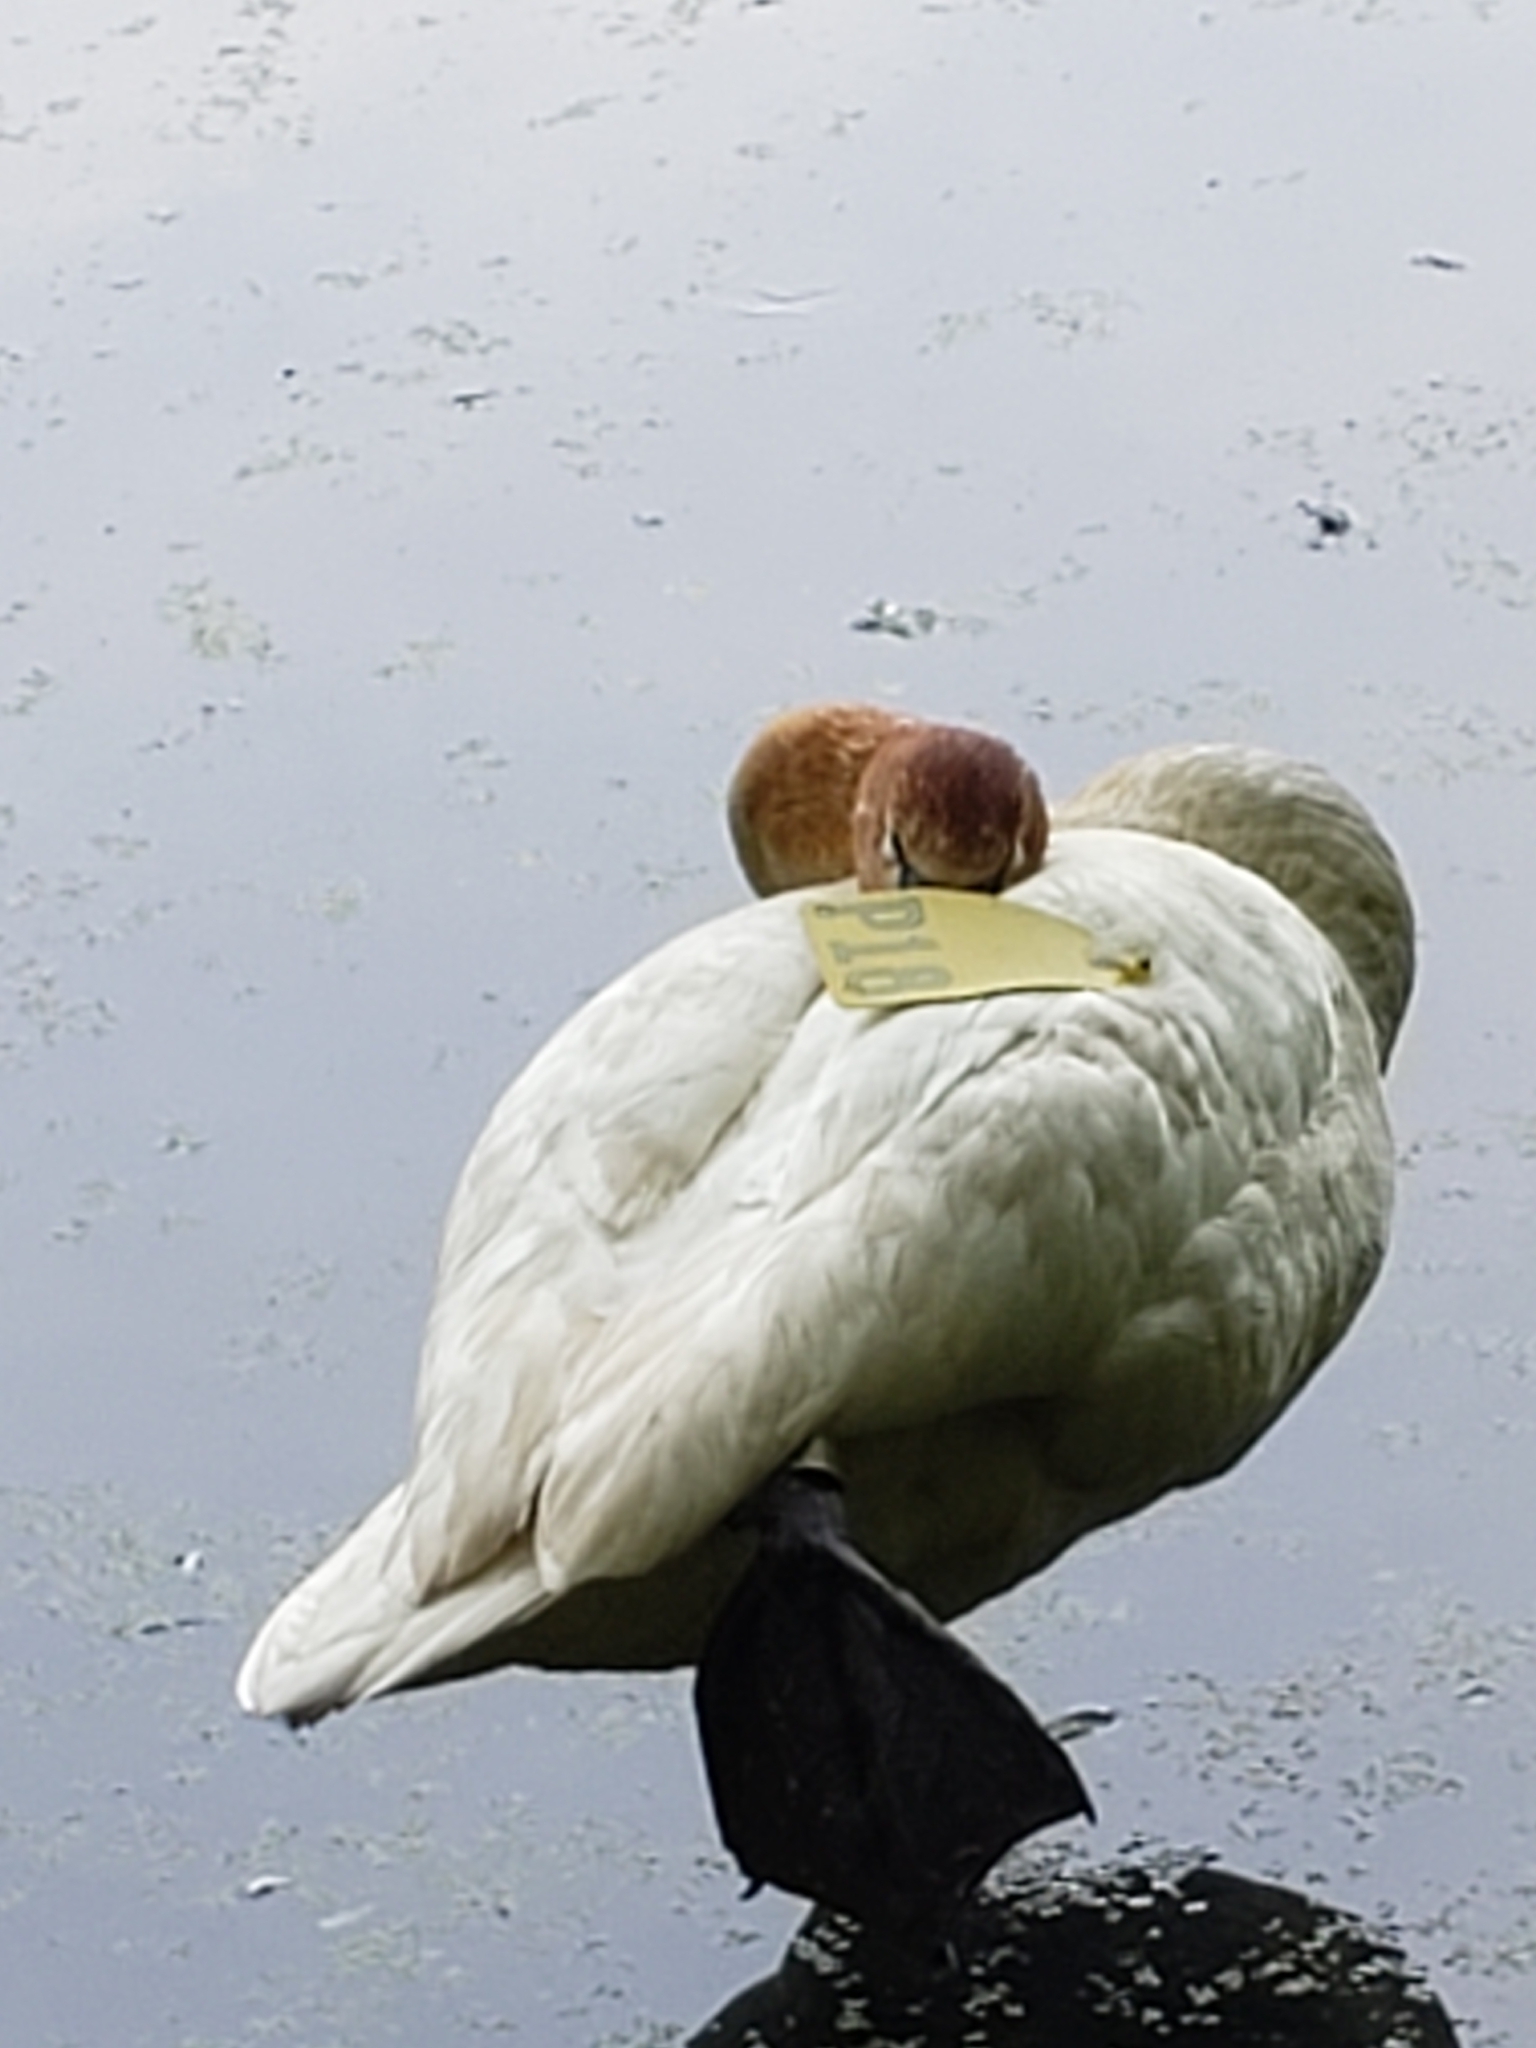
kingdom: Animalia
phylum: Chordata
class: Aves
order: Anseriformes
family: Anatidae
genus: Cygnus
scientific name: Cygnus buccinator
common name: Trumpeter swan
